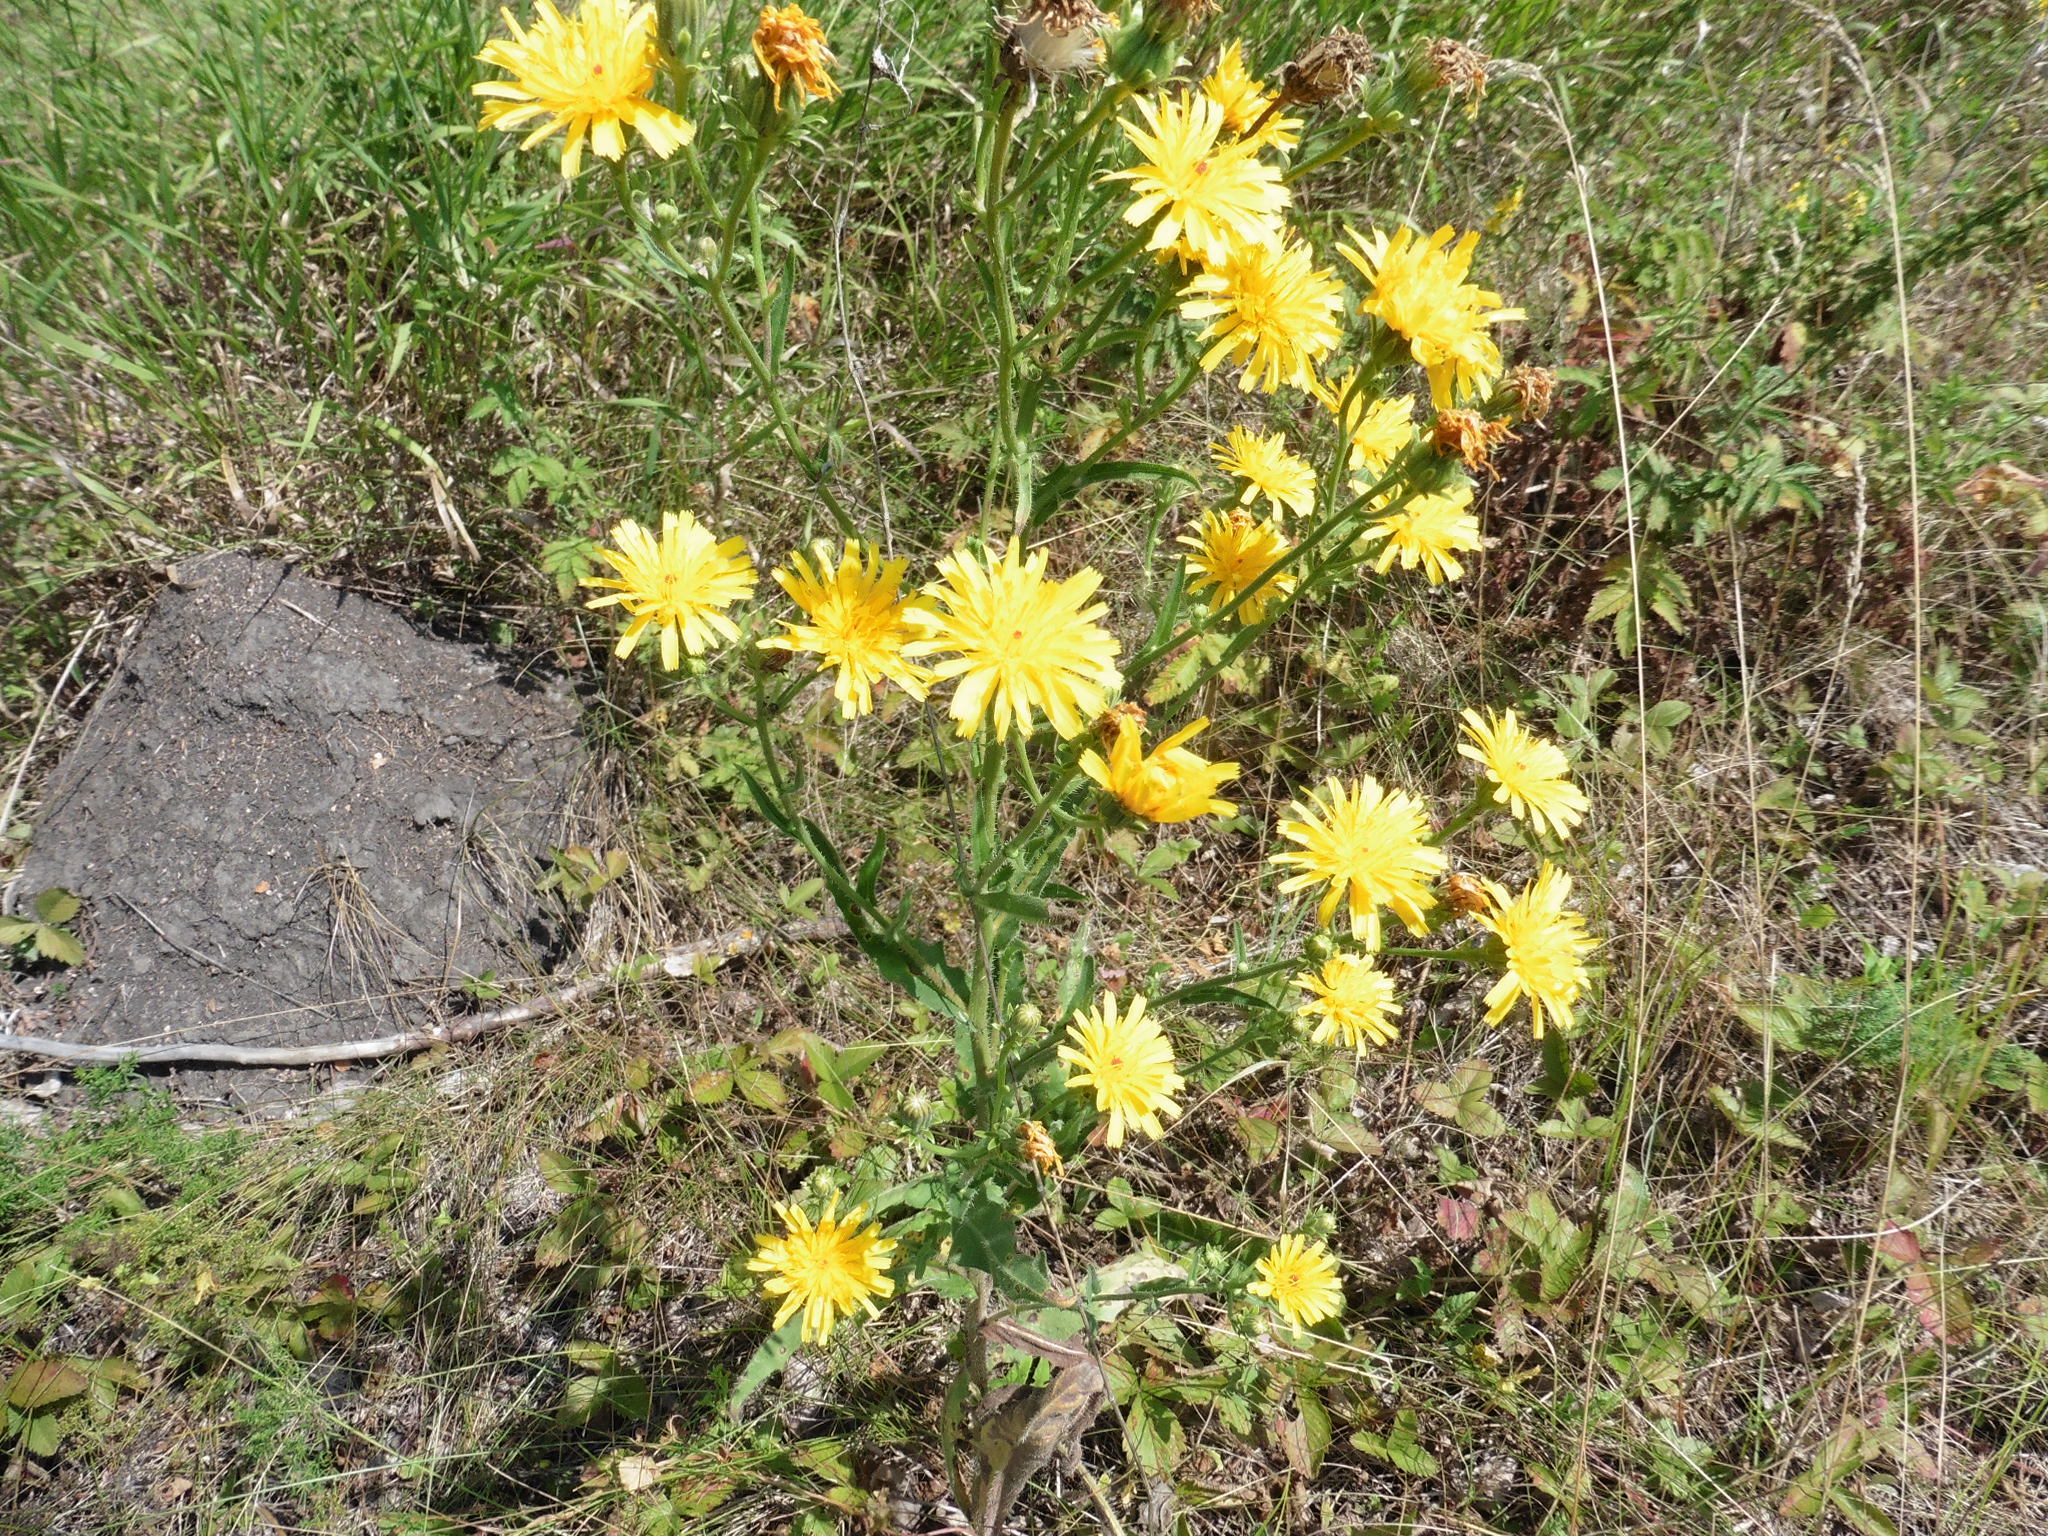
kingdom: Plantae
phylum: Tracheophyta
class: Magnoliopsida
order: Asterales
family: Asteraceae
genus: Picris
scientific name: Picris hieracioides
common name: Hawkweed oxtongue
